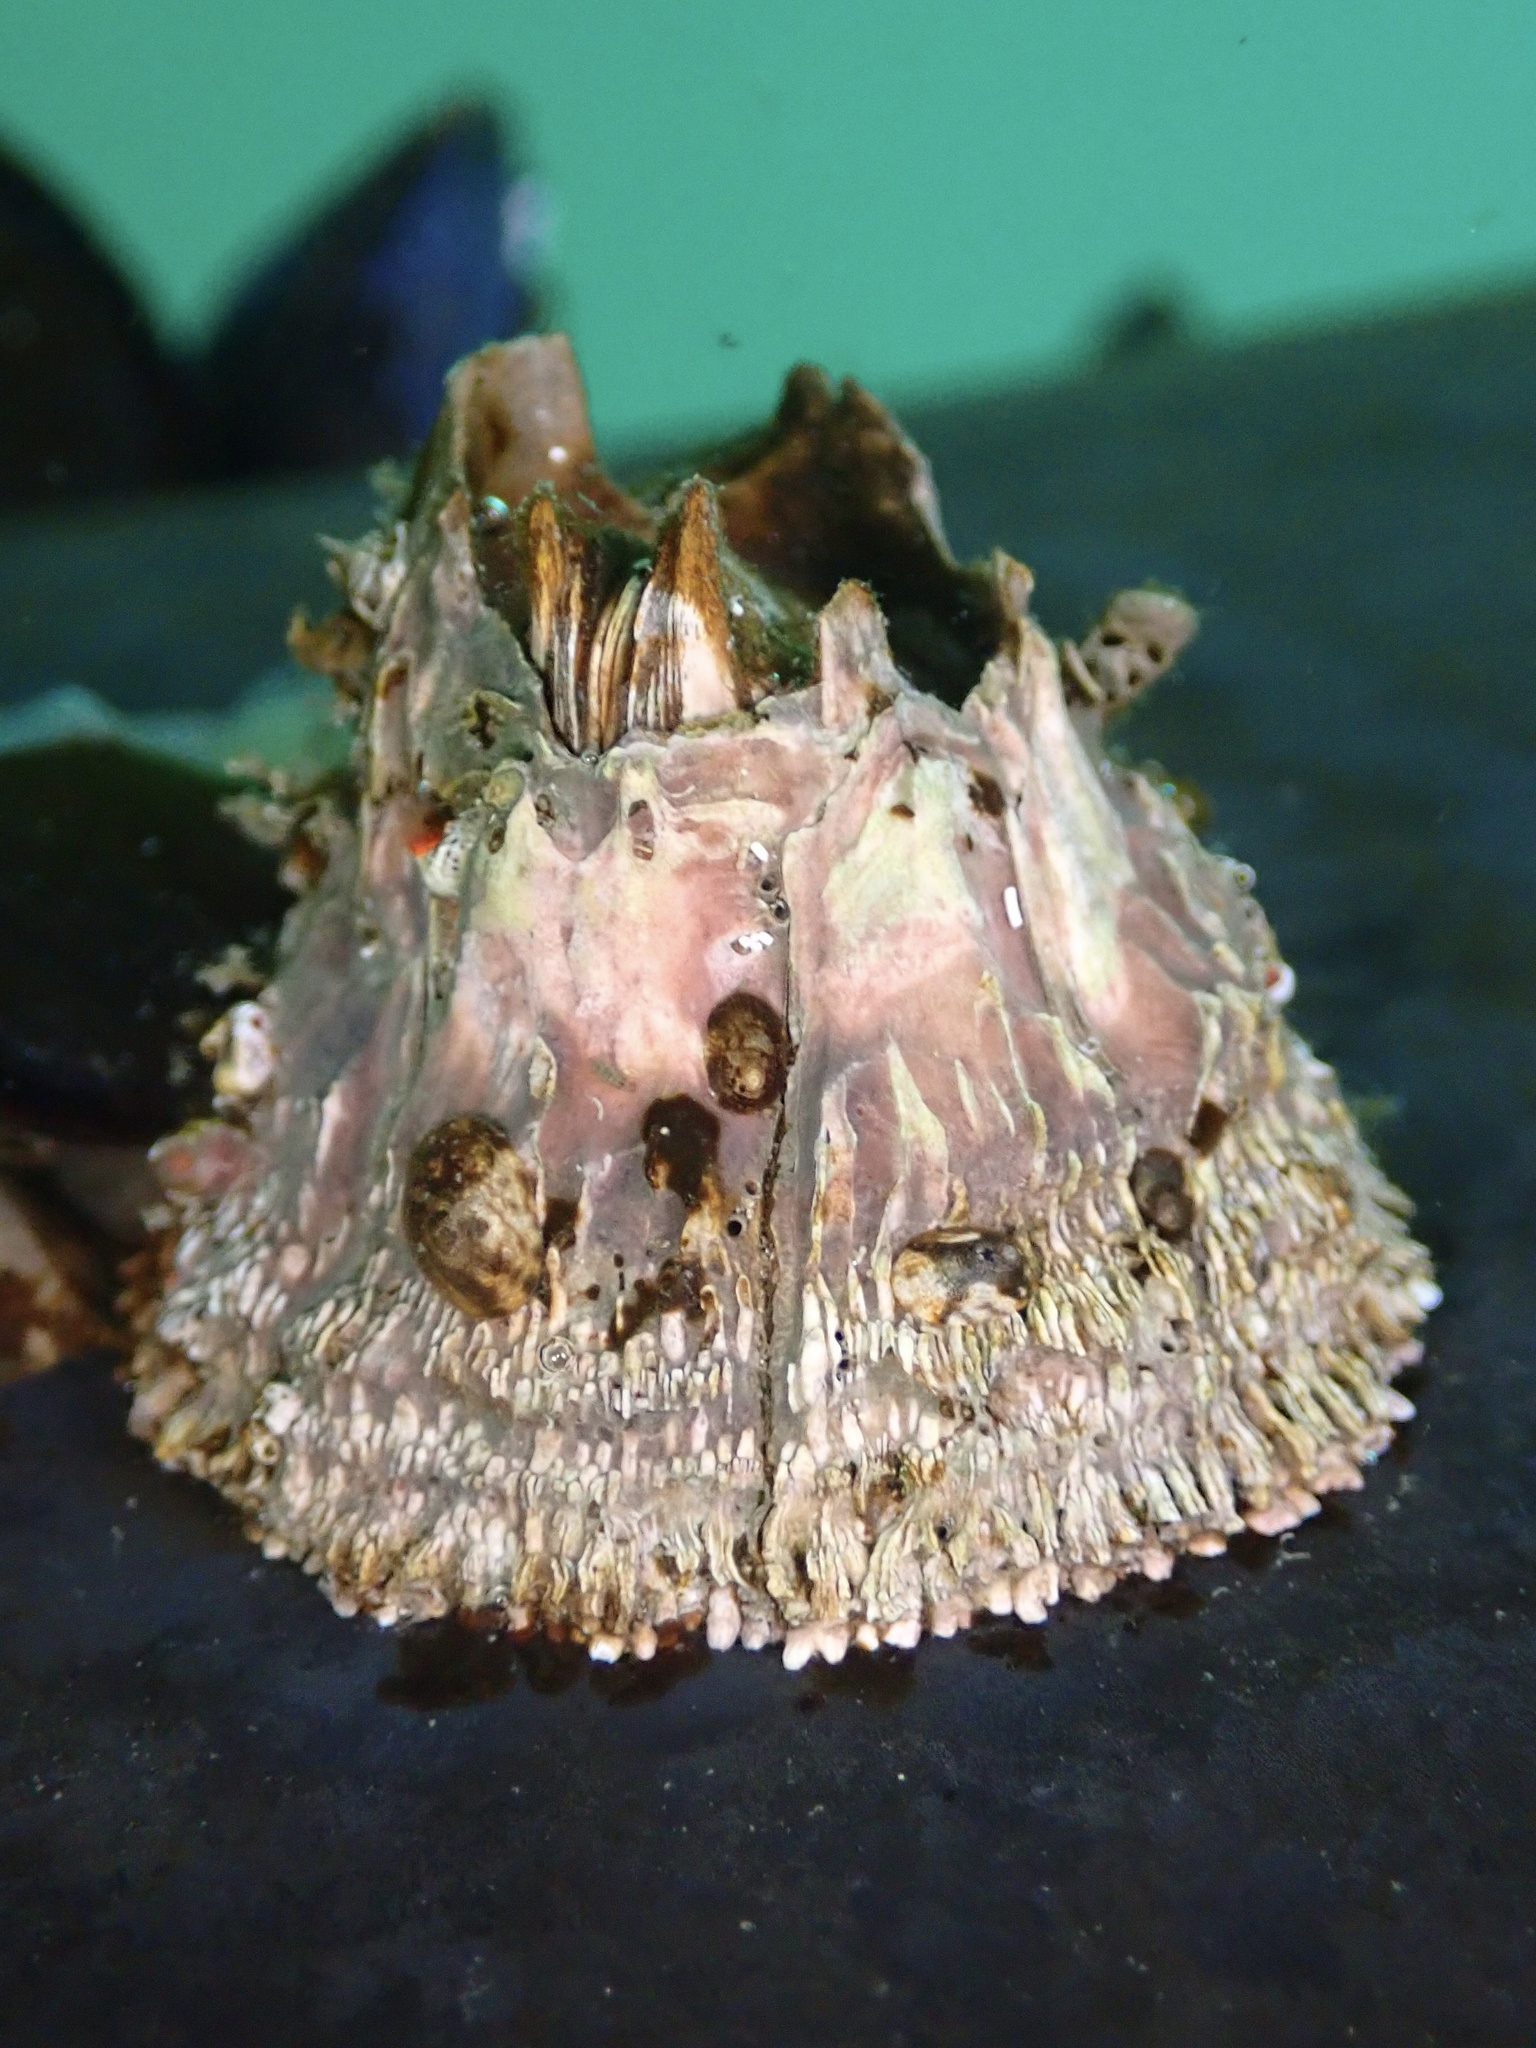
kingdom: Animalia
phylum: Arthropoda
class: Maxillopoda
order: Sessilia
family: Archaeobalanidae
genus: Semibalanus
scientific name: Semibalanus cariosus
